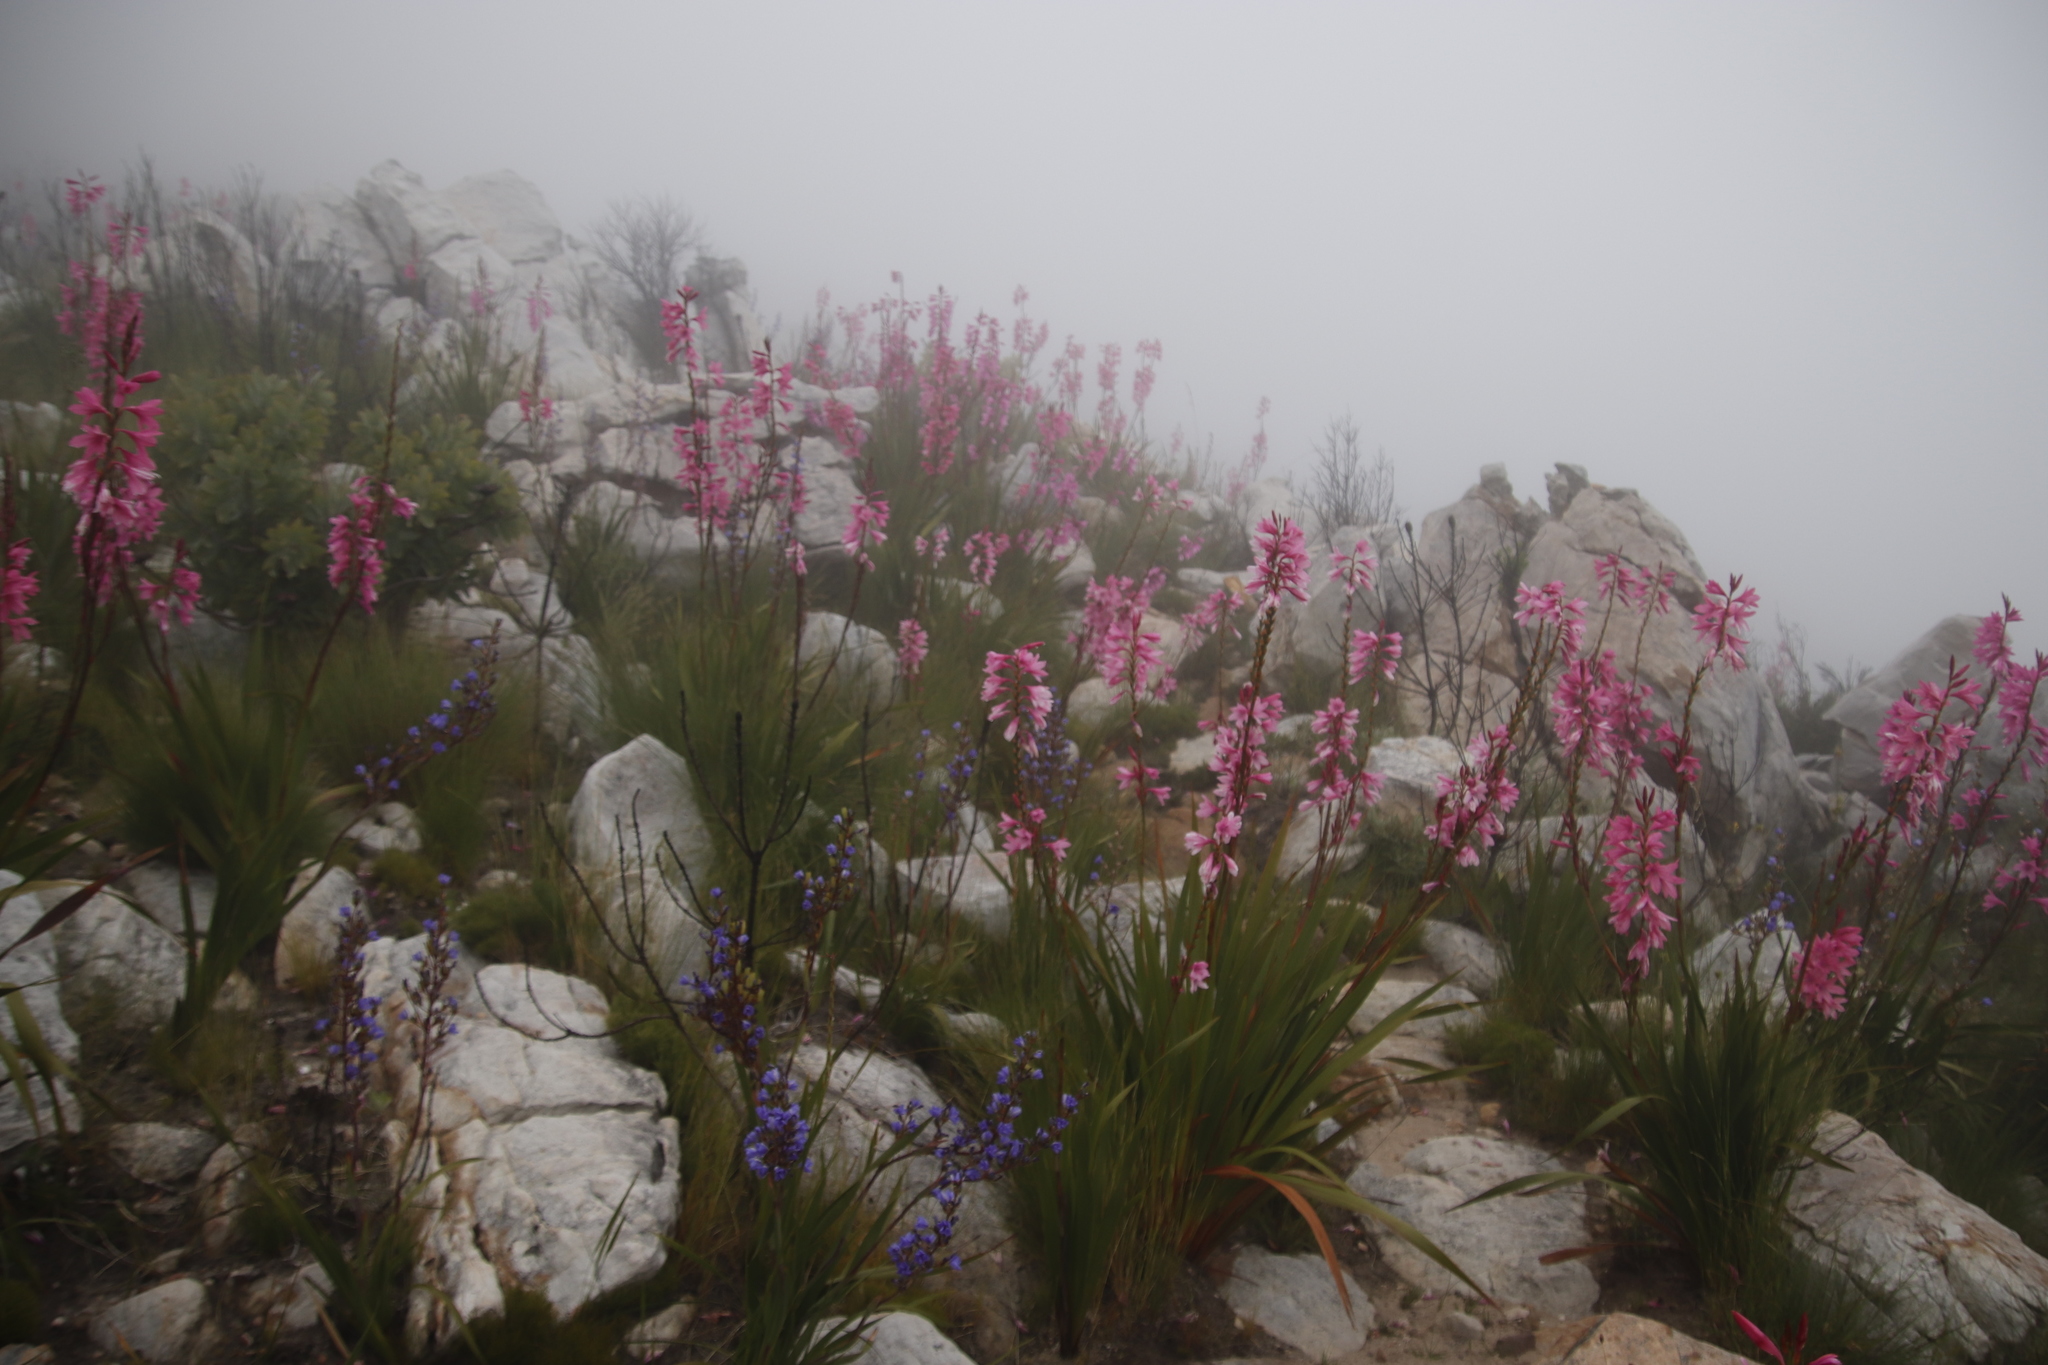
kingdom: Plantae
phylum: Tracheophyta
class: Liliopsida
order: Asparagales
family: Iridaceae
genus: Watsonia
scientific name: Watsonia borbonica
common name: Bugle-lily
